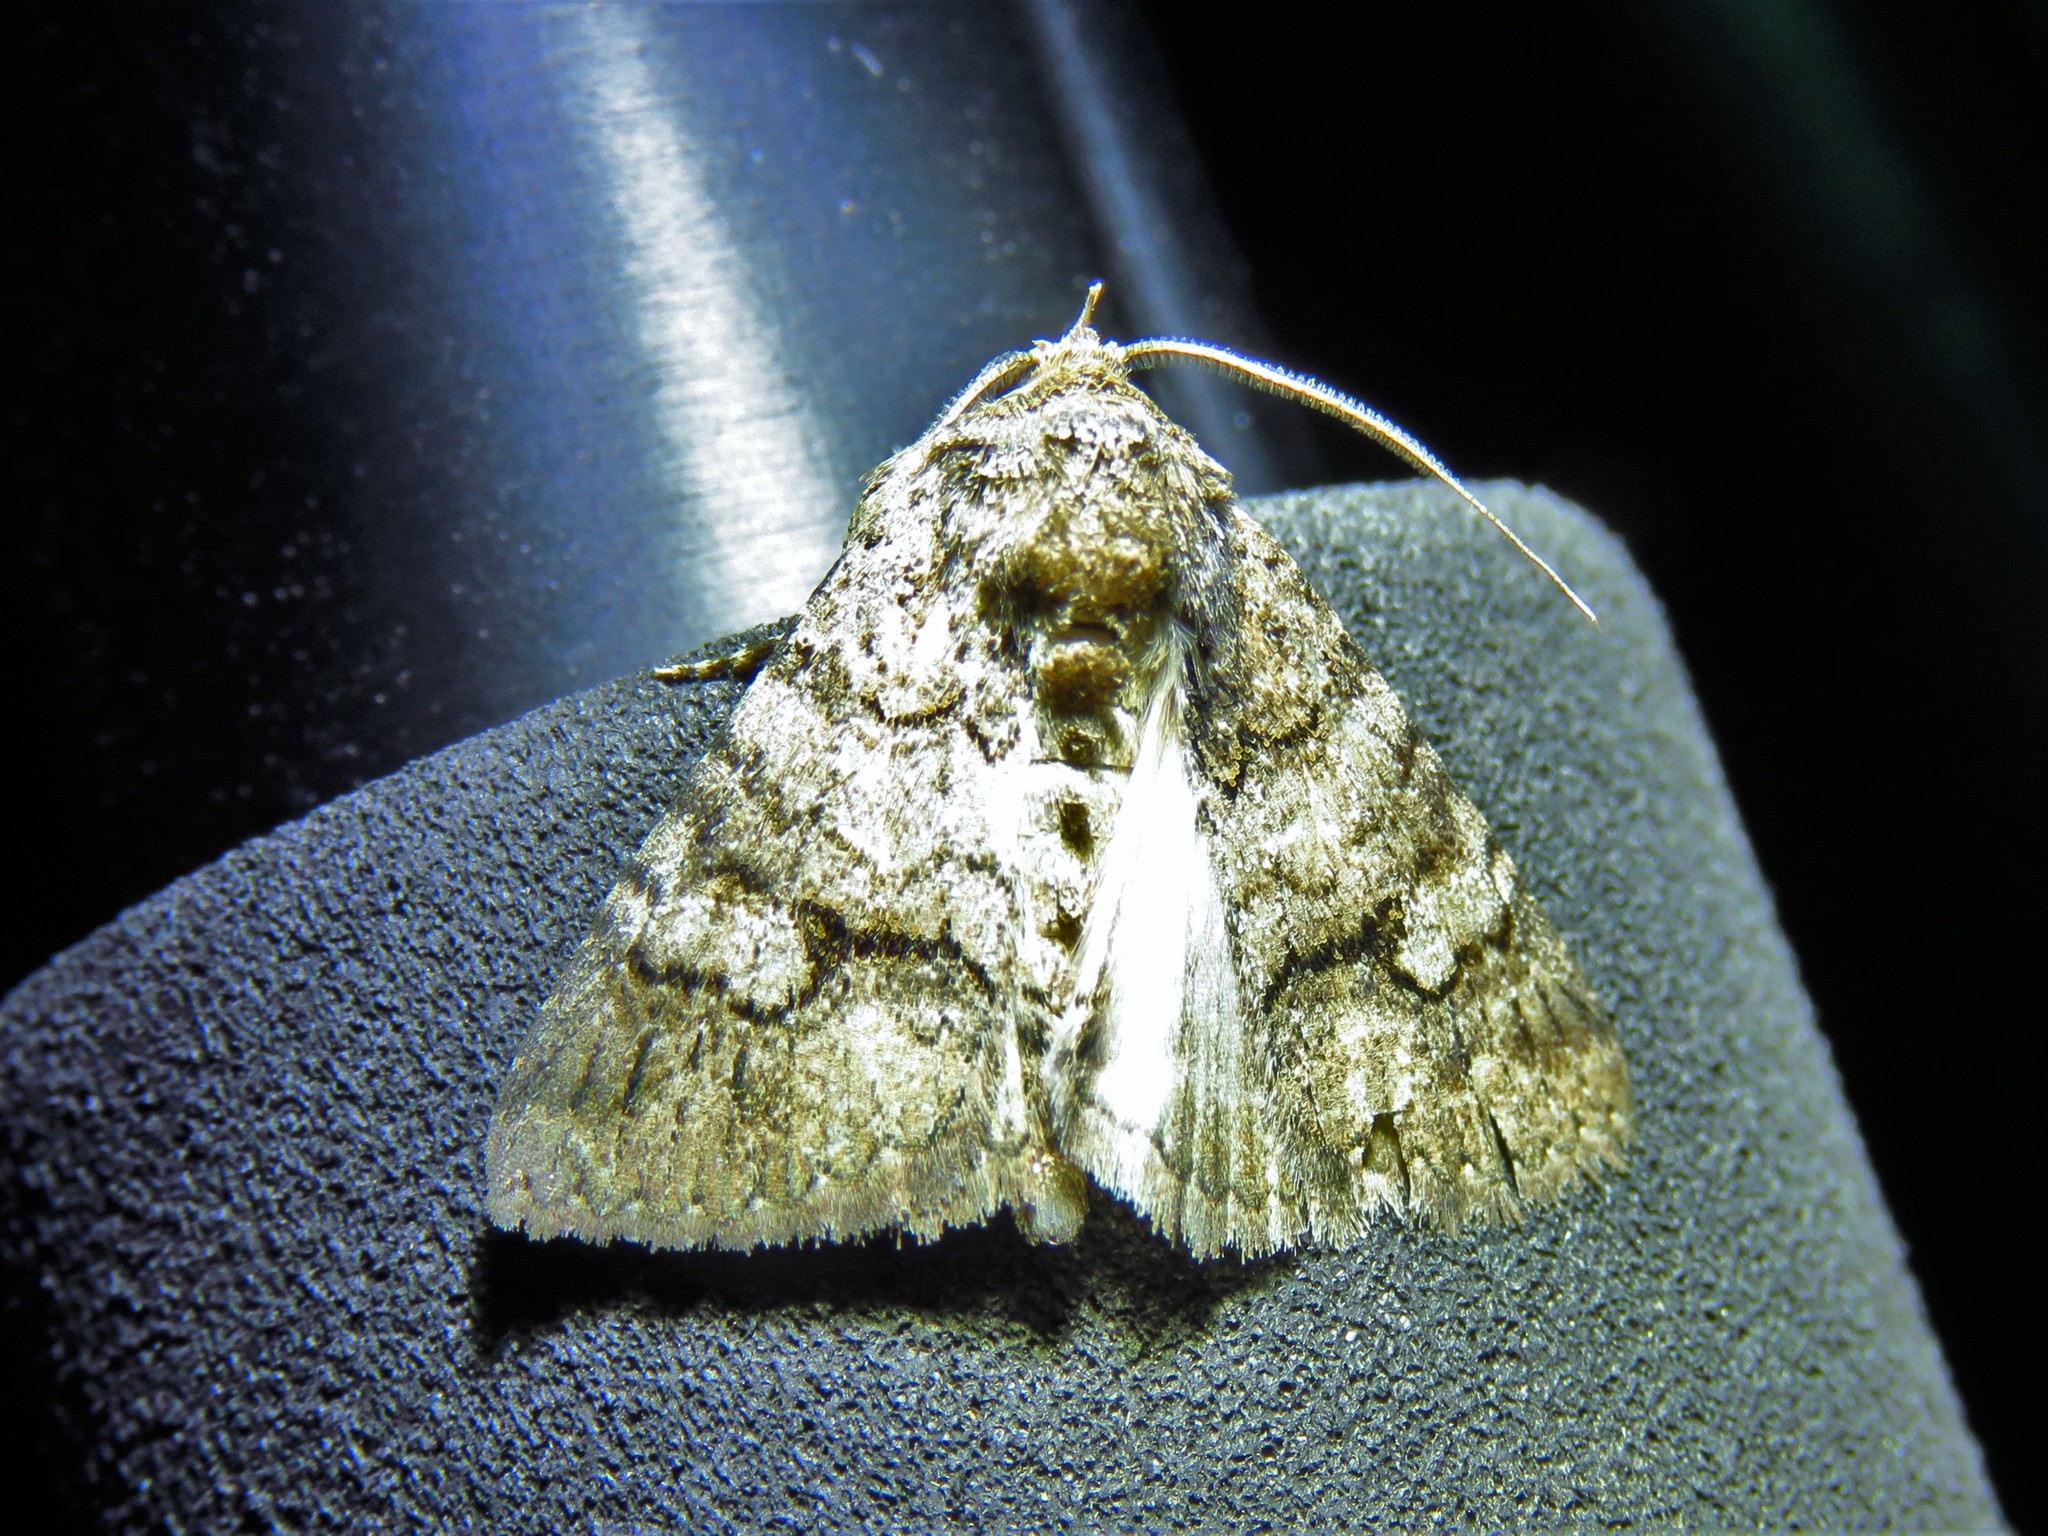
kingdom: Animalia
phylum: Arthropoda
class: Insecta
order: Lepidoptera
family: Erebidae
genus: Elousa
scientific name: Elousa mima
